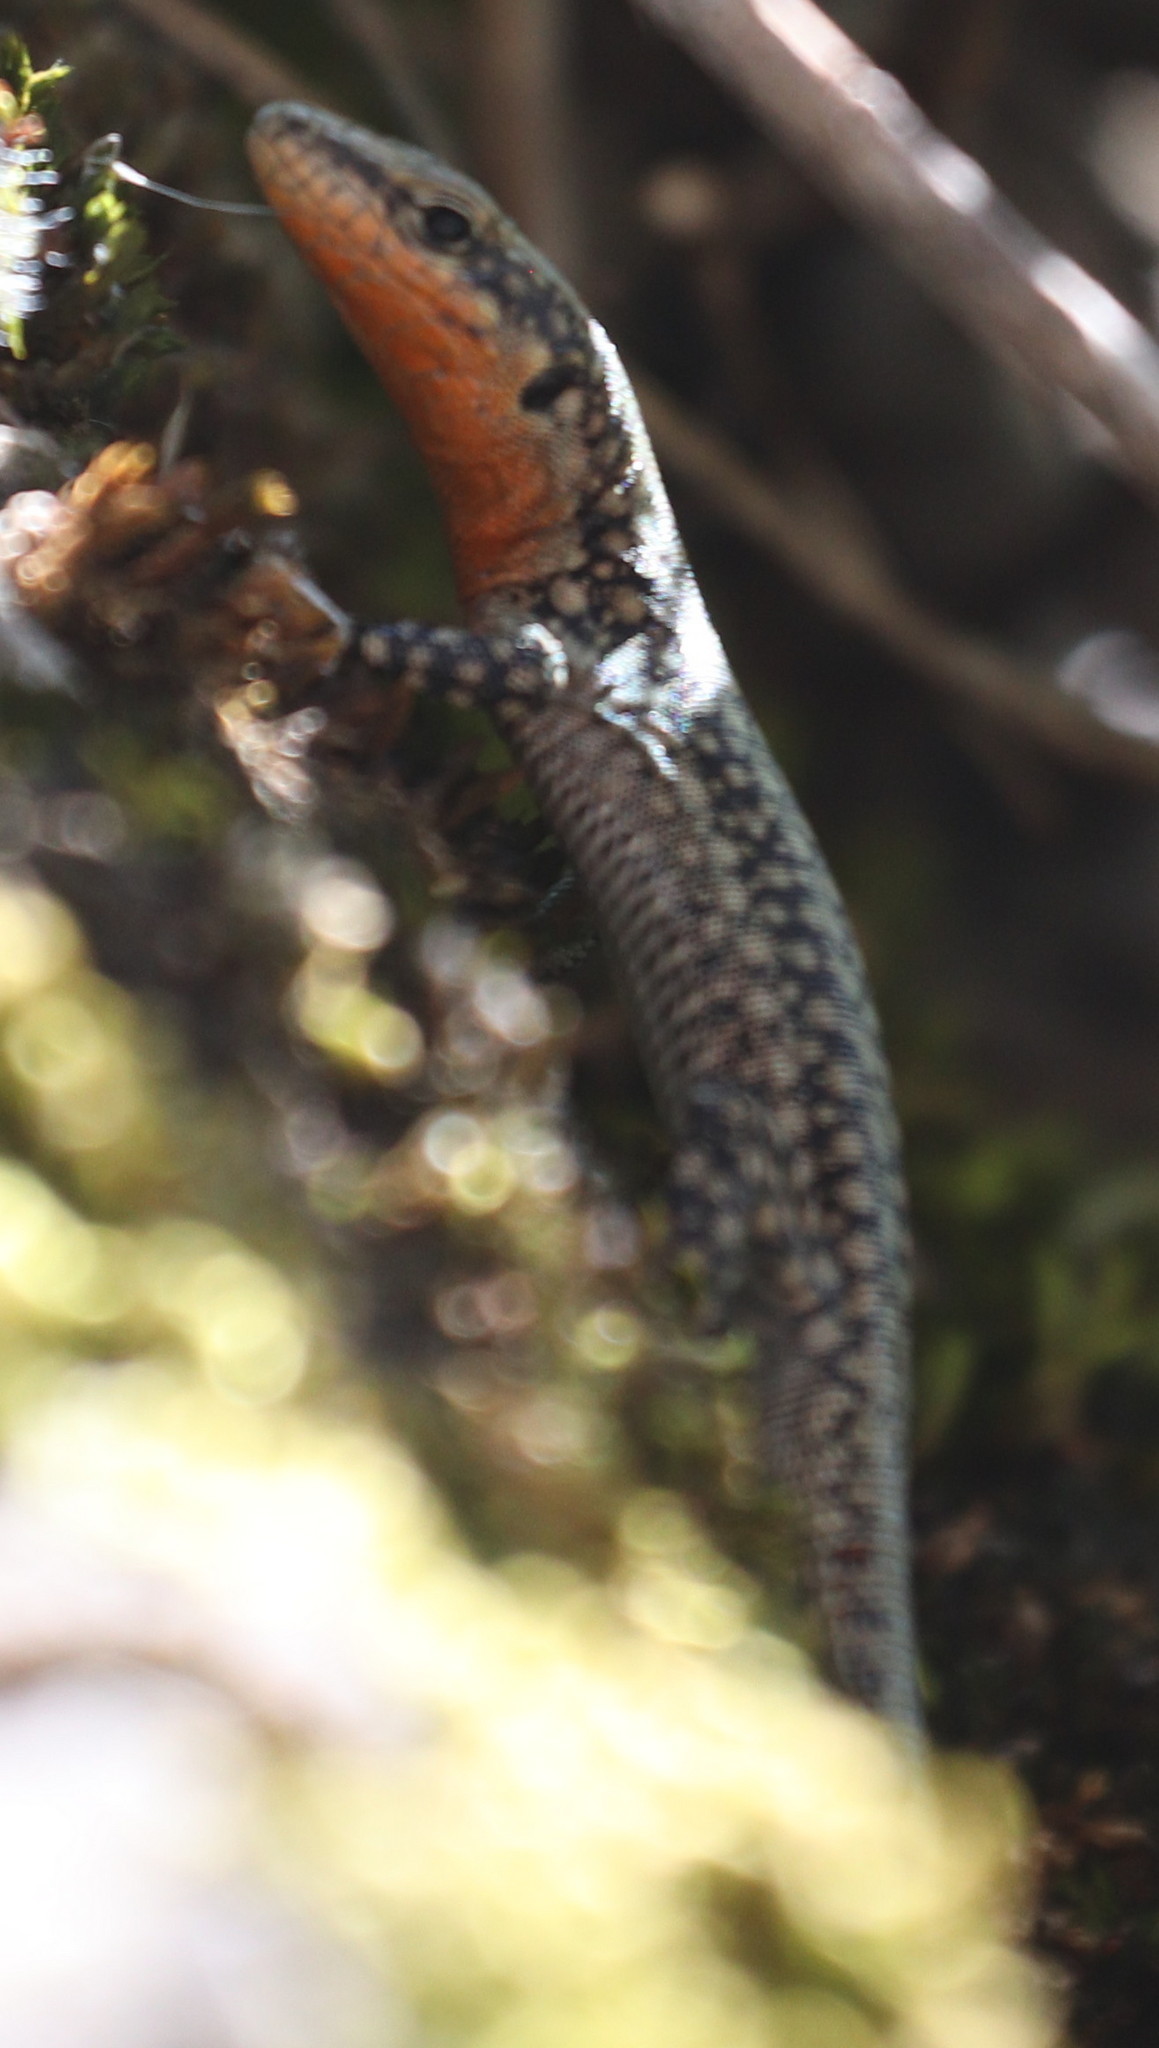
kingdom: Animalia
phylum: Chordata
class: Squamata
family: Lacertidae
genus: Anatololacerta
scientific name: Anatololacerta danfordi
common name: Danford's lizard
